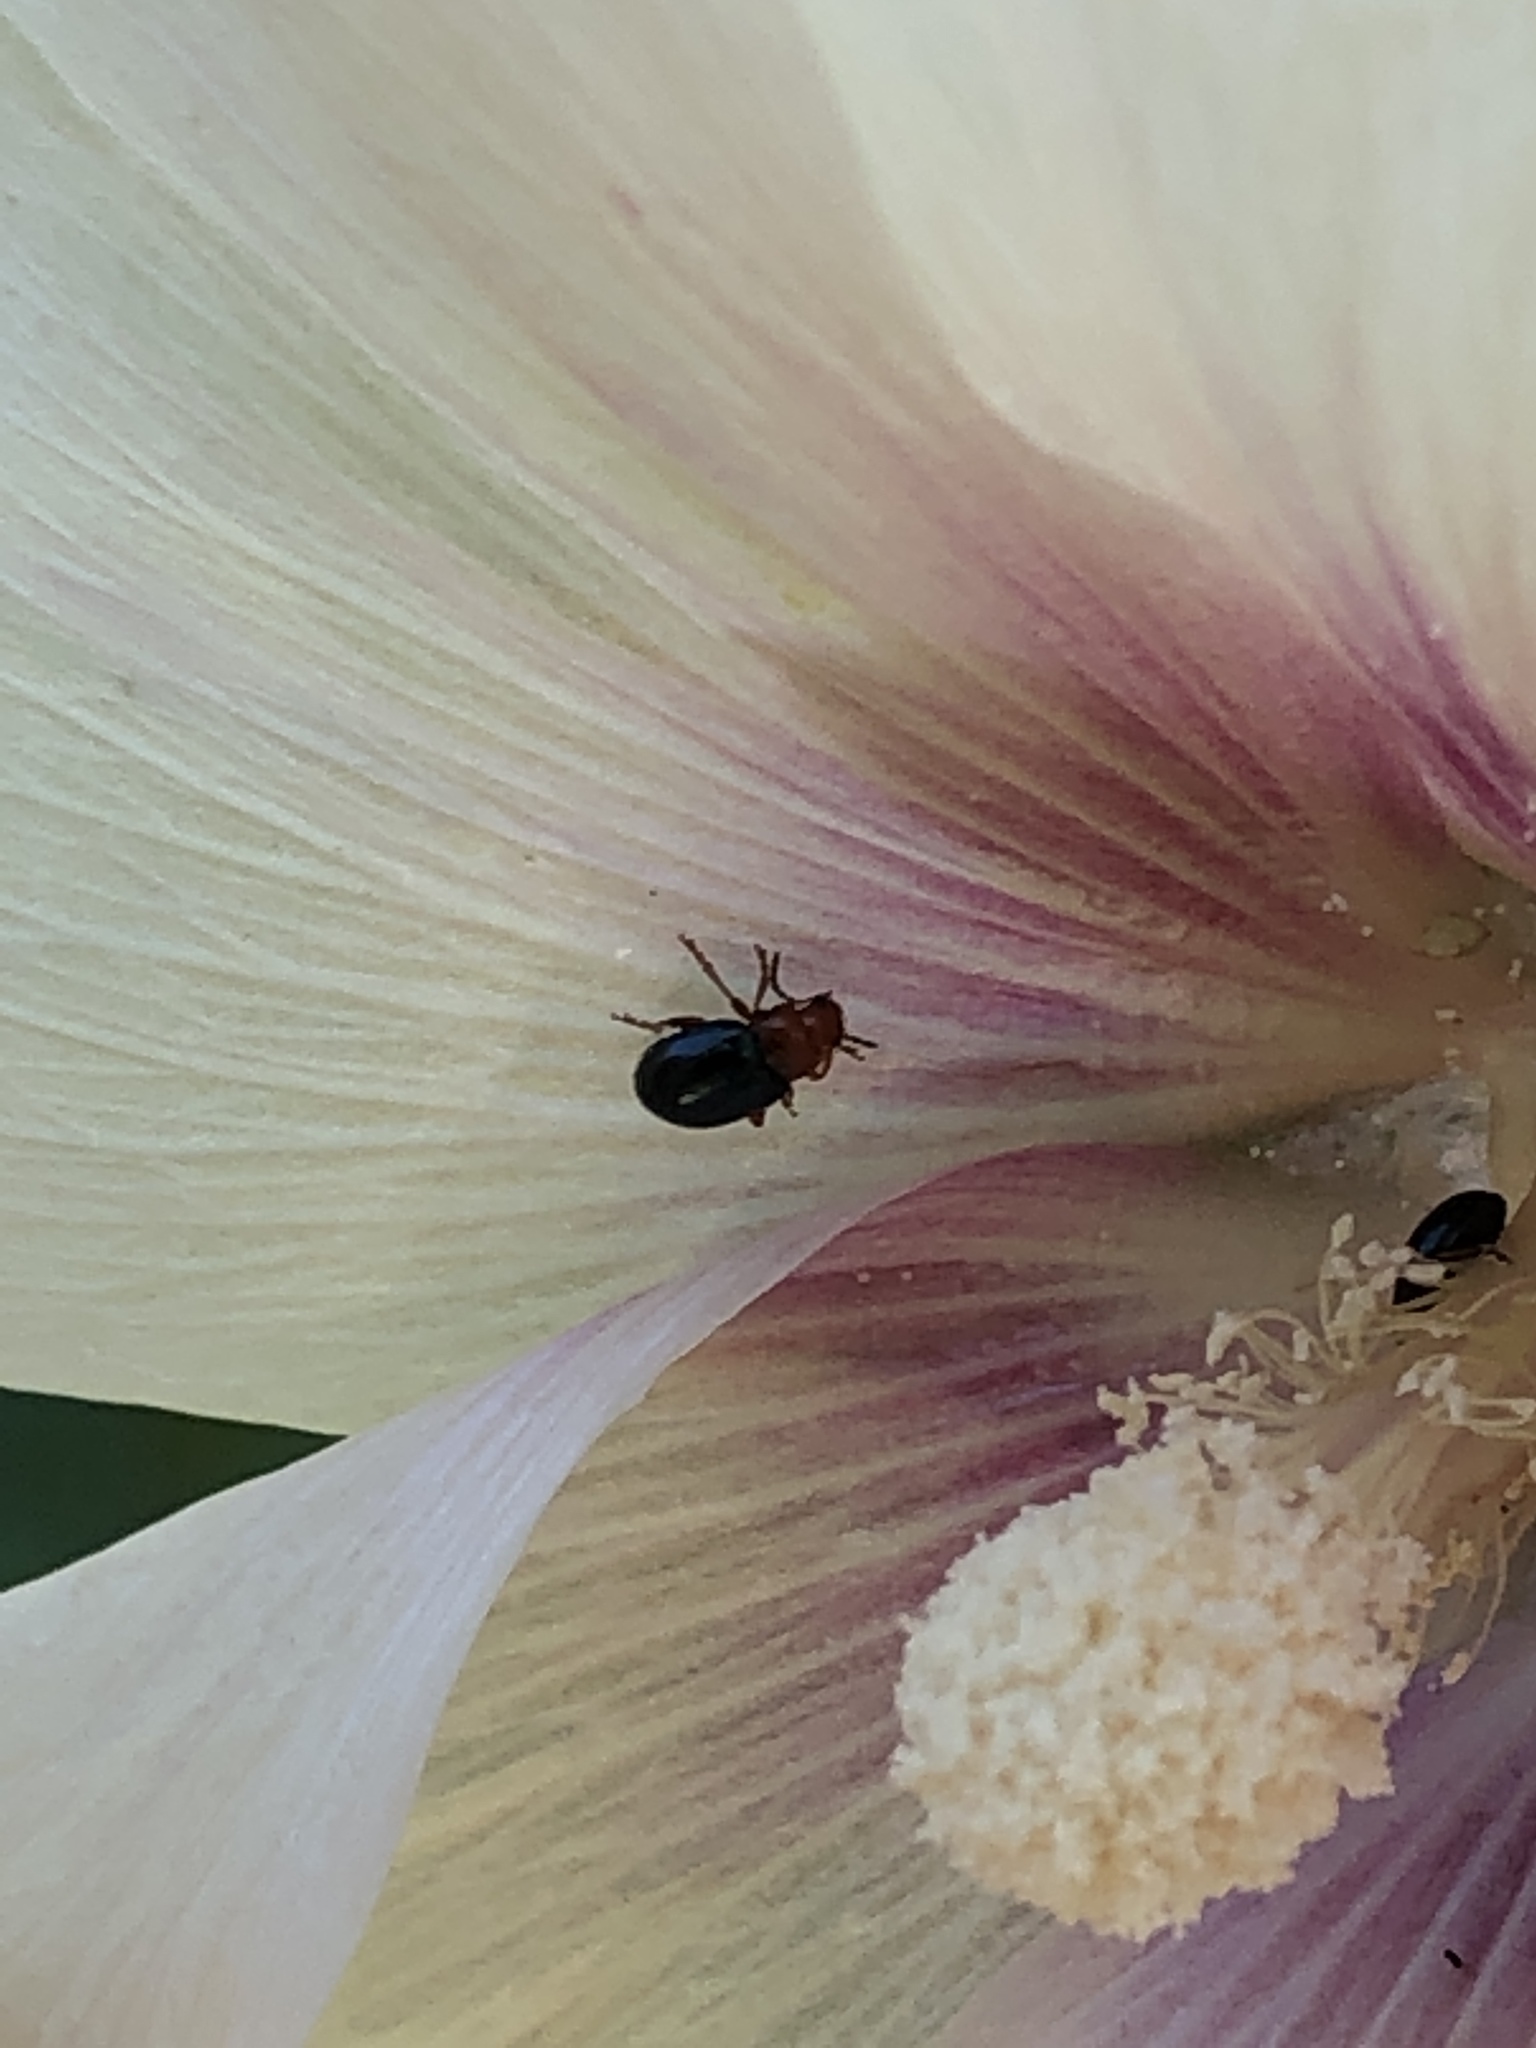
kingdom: Animalia
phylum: Arthropoda
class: Insecta
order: Coleoptera
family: Chrysomelidae
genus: Podagrica
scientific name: Podagrica fuscicornis
